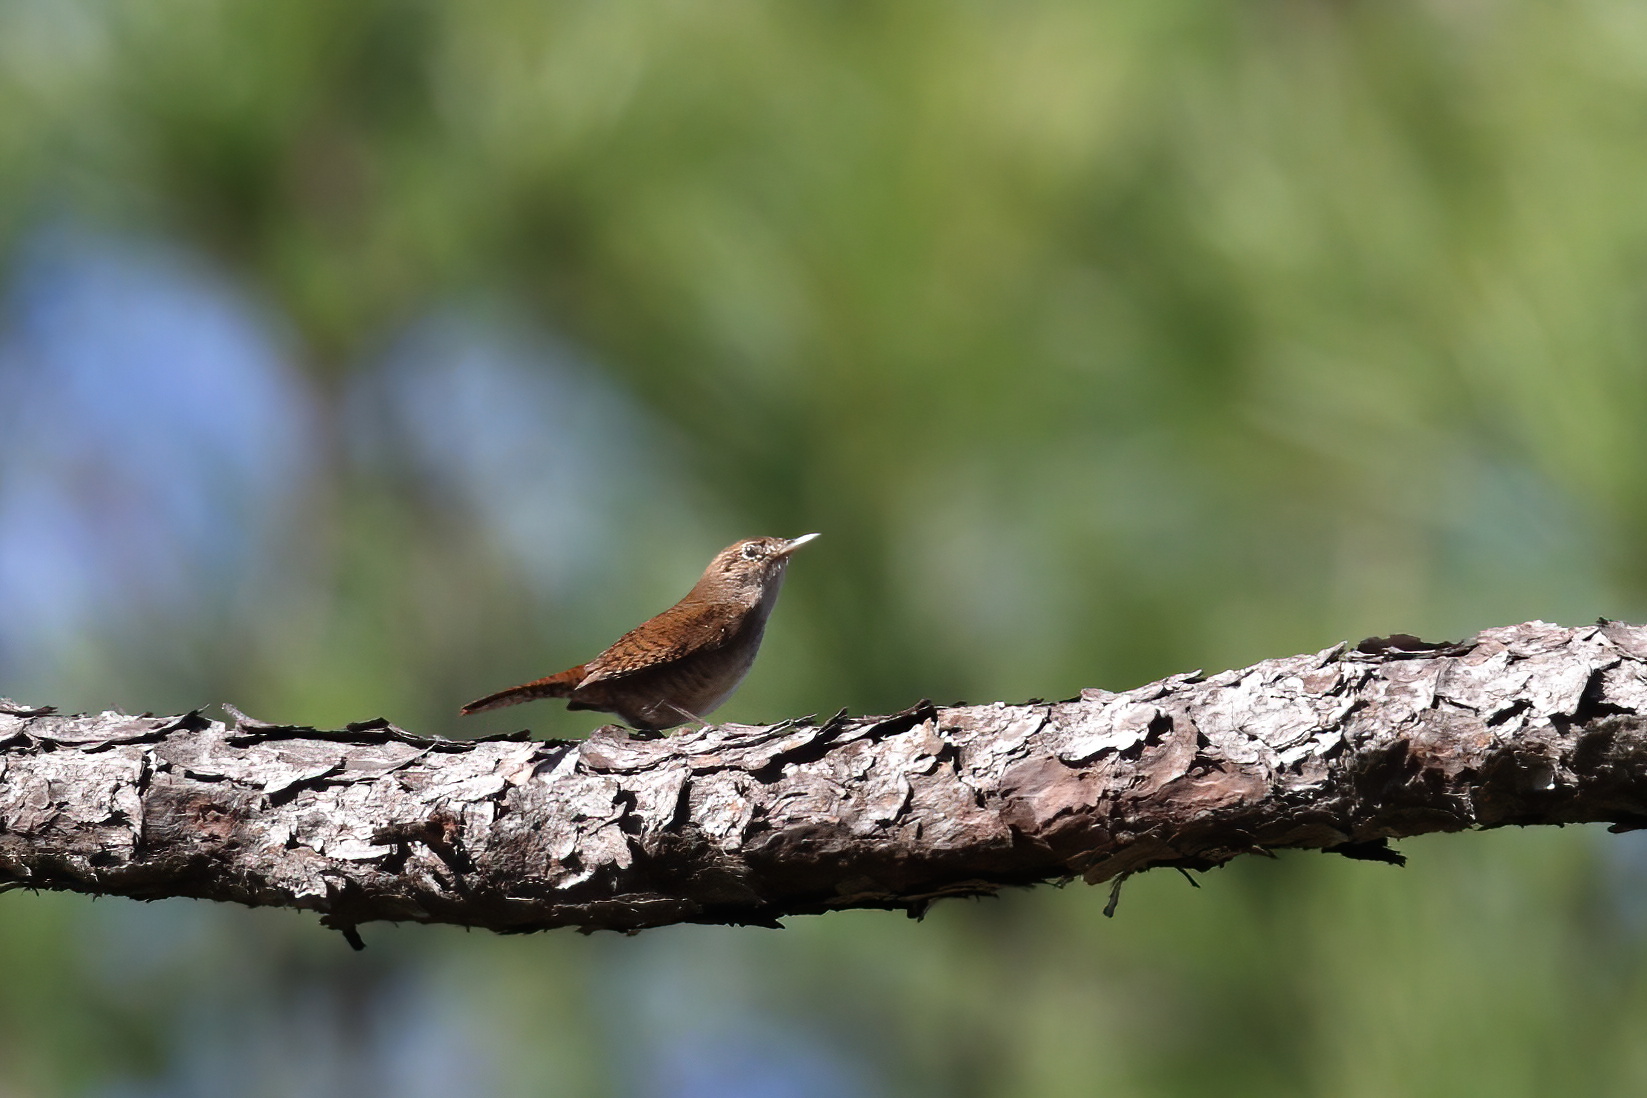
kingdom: Animalia
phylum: Chordata
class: Aves
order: Passeriformes
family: Troglodytidae
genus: Troglodytes
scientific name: Troglodytes aedon
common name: House wren
